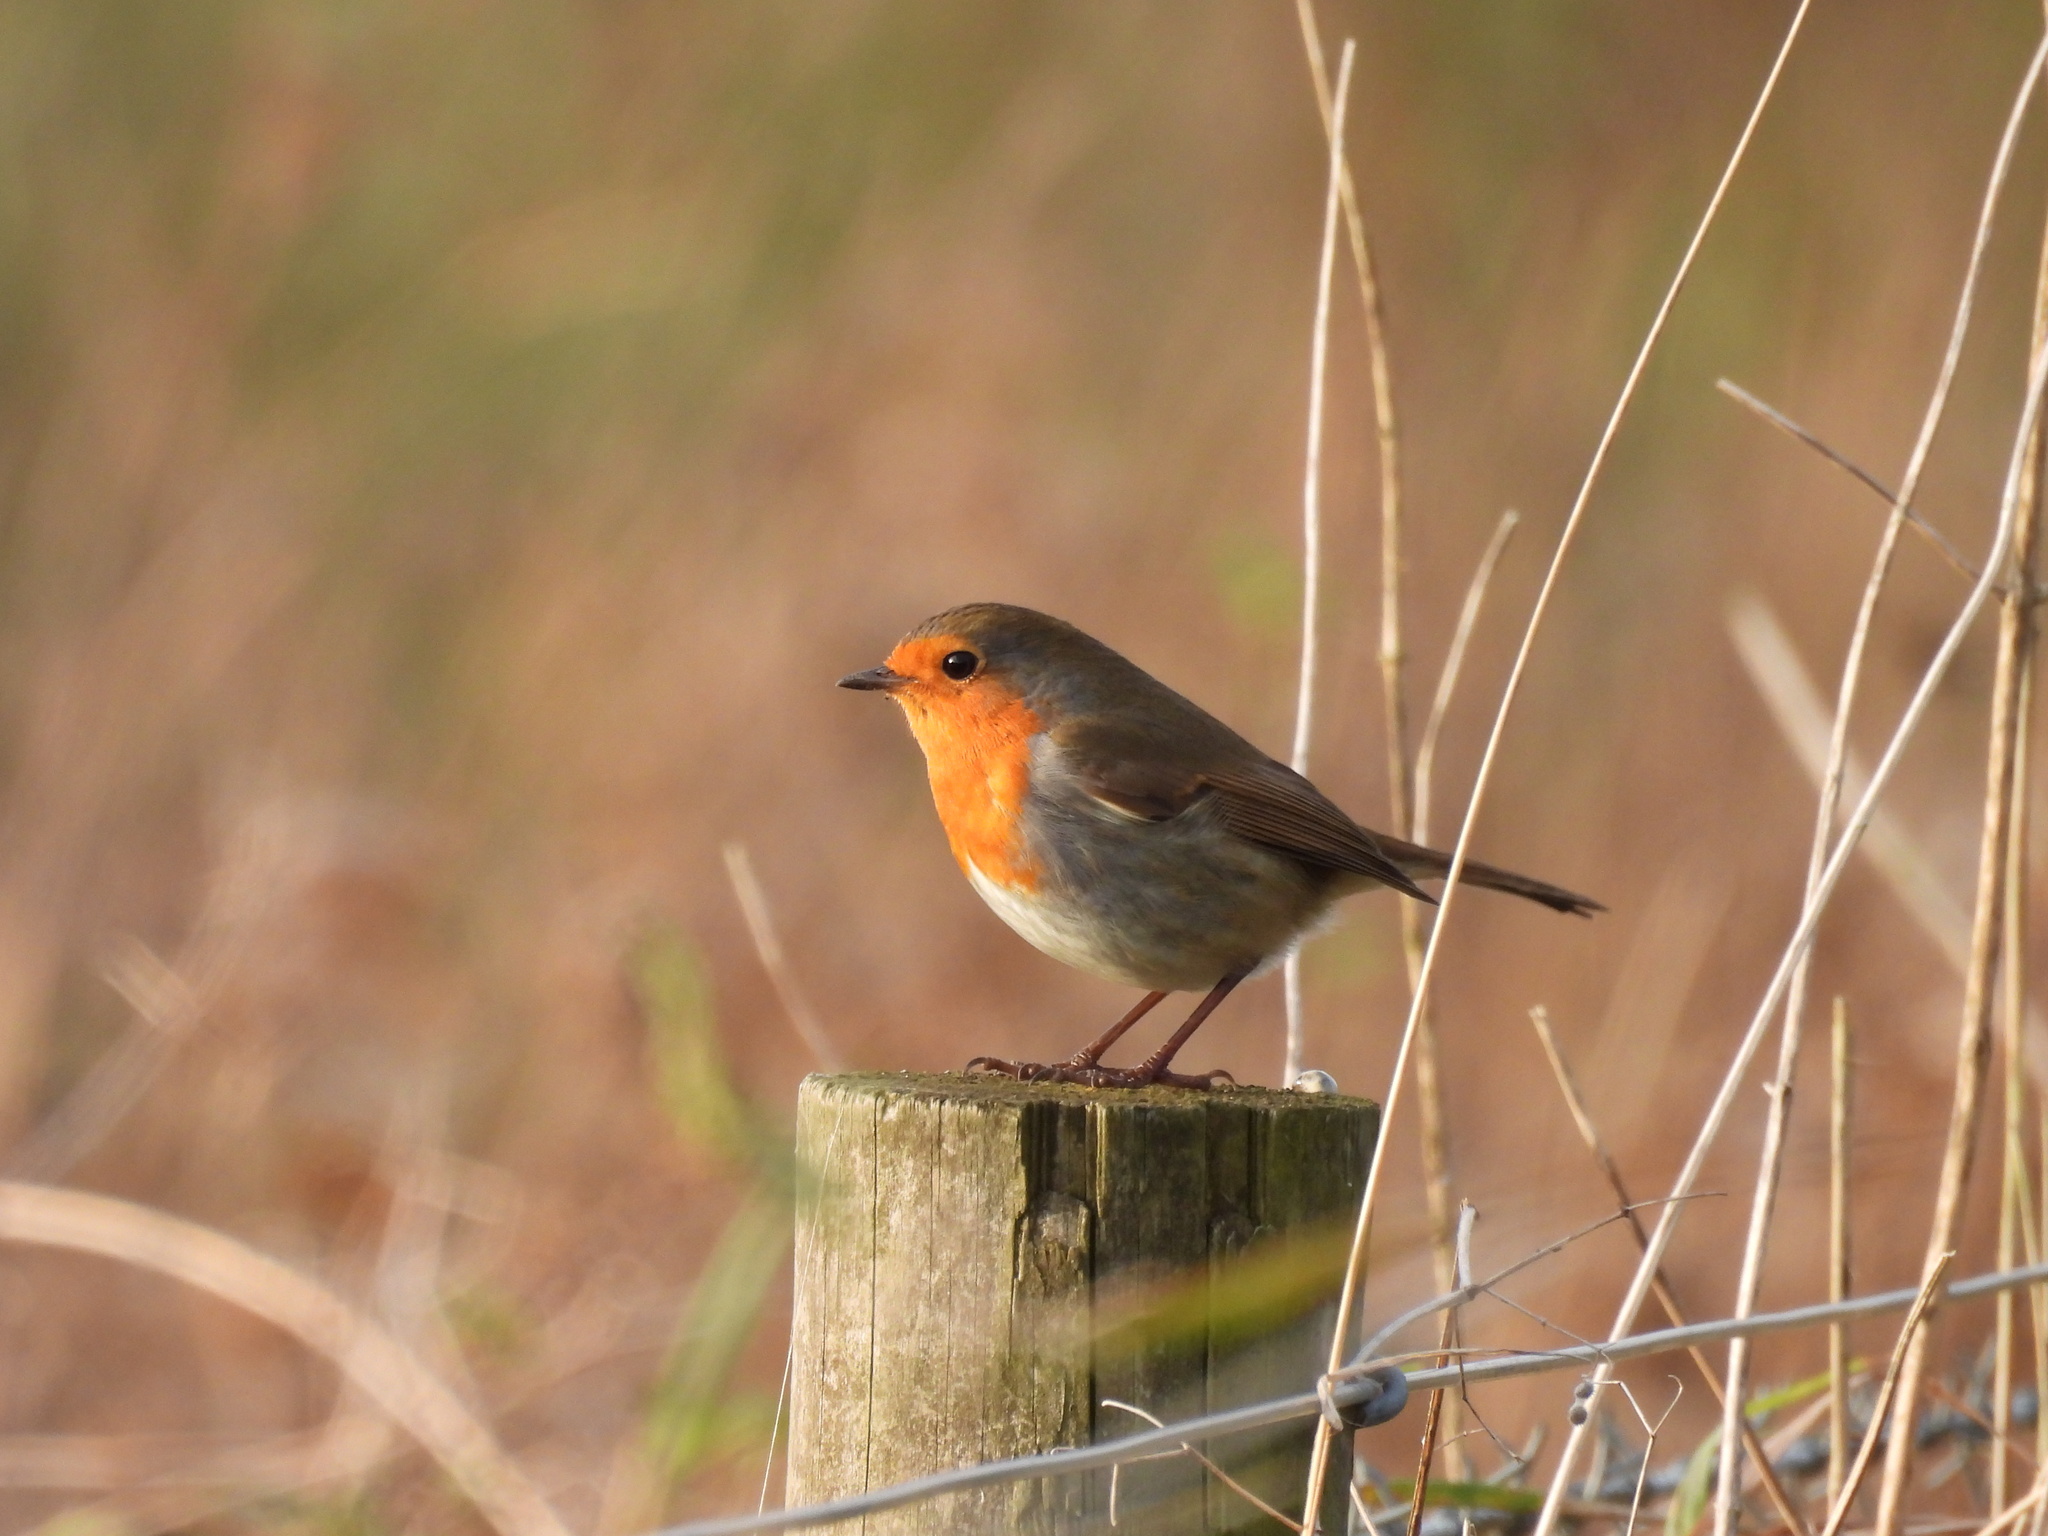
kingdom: Animalia
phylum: Chordata
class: Aves
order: Passeriformes
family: Muscicapidae
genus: Erithacus
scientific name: Erithacus rubecula
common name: European robin
